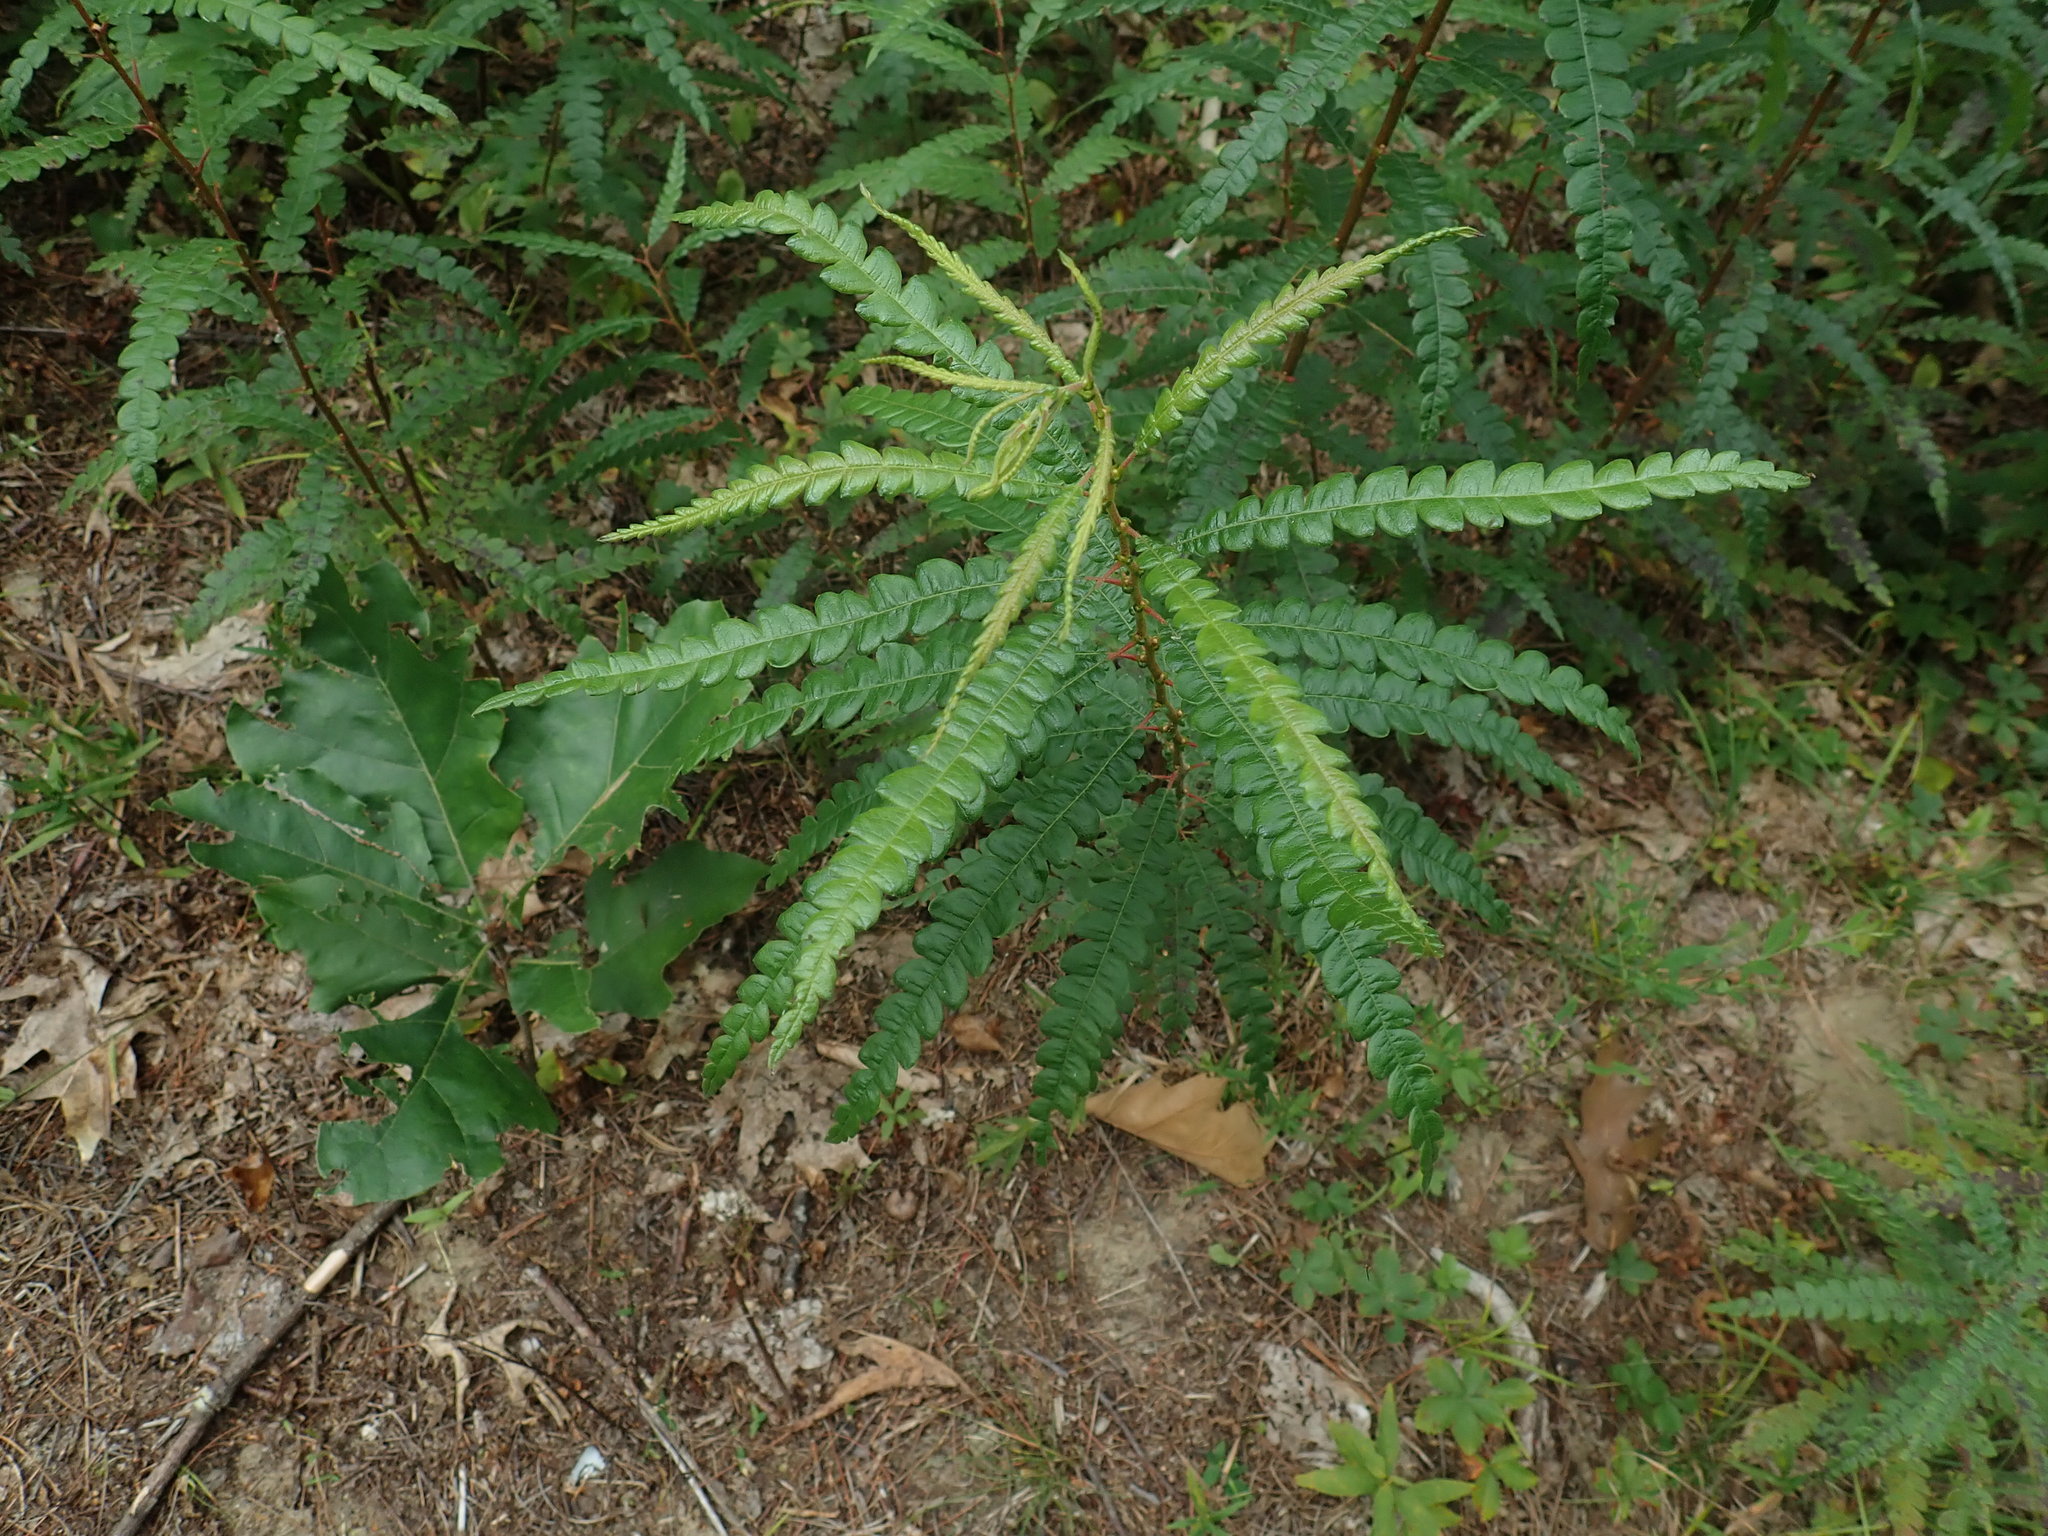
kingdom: Plantae
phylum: Tracheophyta
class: Magnoliopsida
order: Fagales
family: Myricaceae
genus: Comptonia
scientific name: Comptonia peregrina
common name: Sweet-fern
